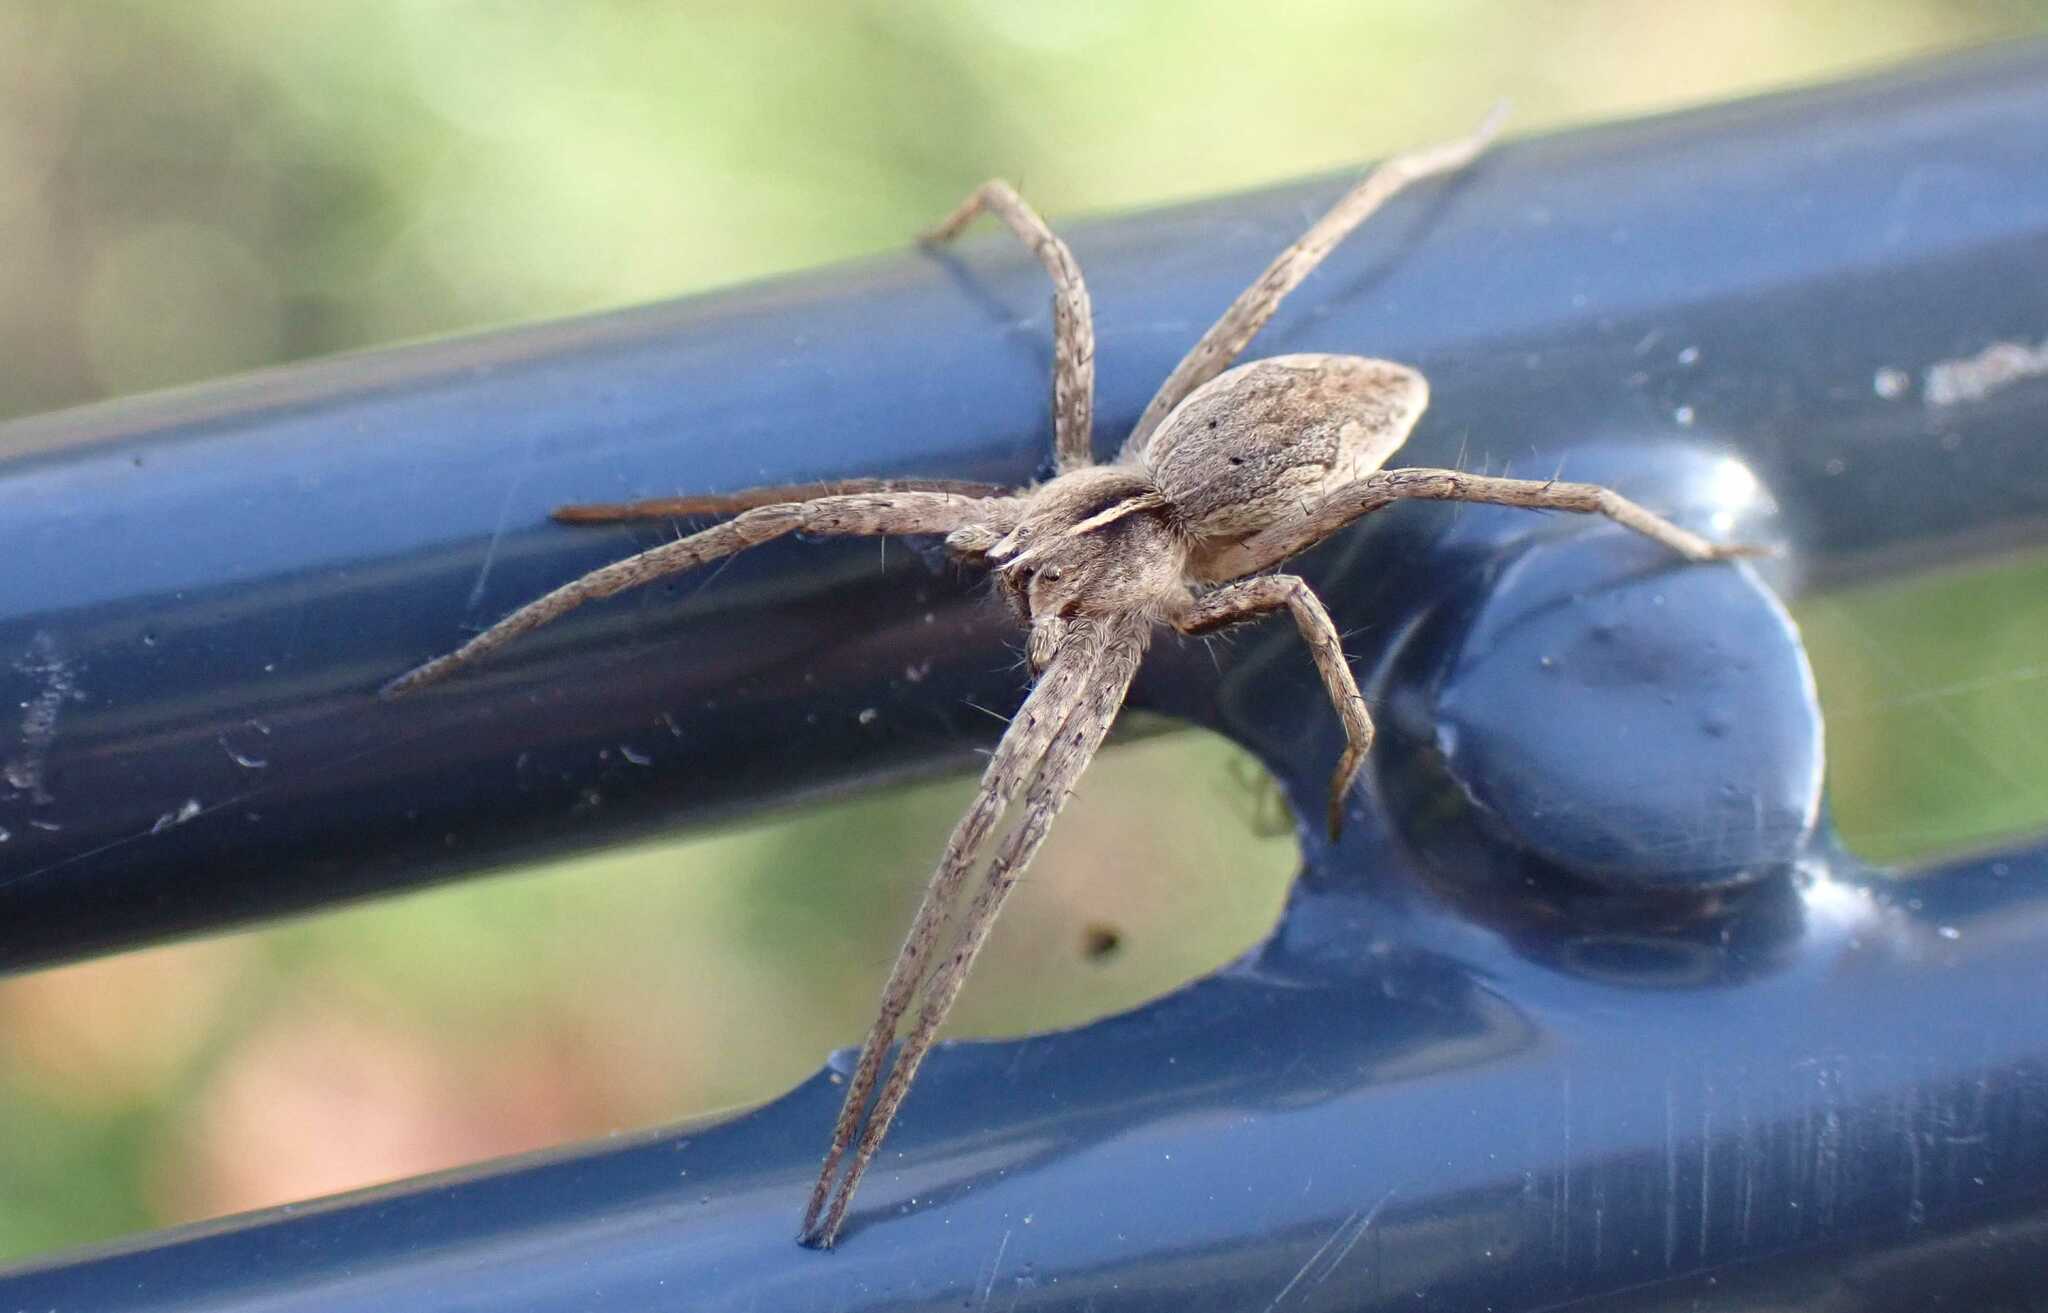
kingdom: Animalia
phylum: Arthropoda
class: Arachnida
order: Araneae
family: Pisauridae
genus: Pisaura
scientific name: Pisaura mirabilis
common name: Tent spider
